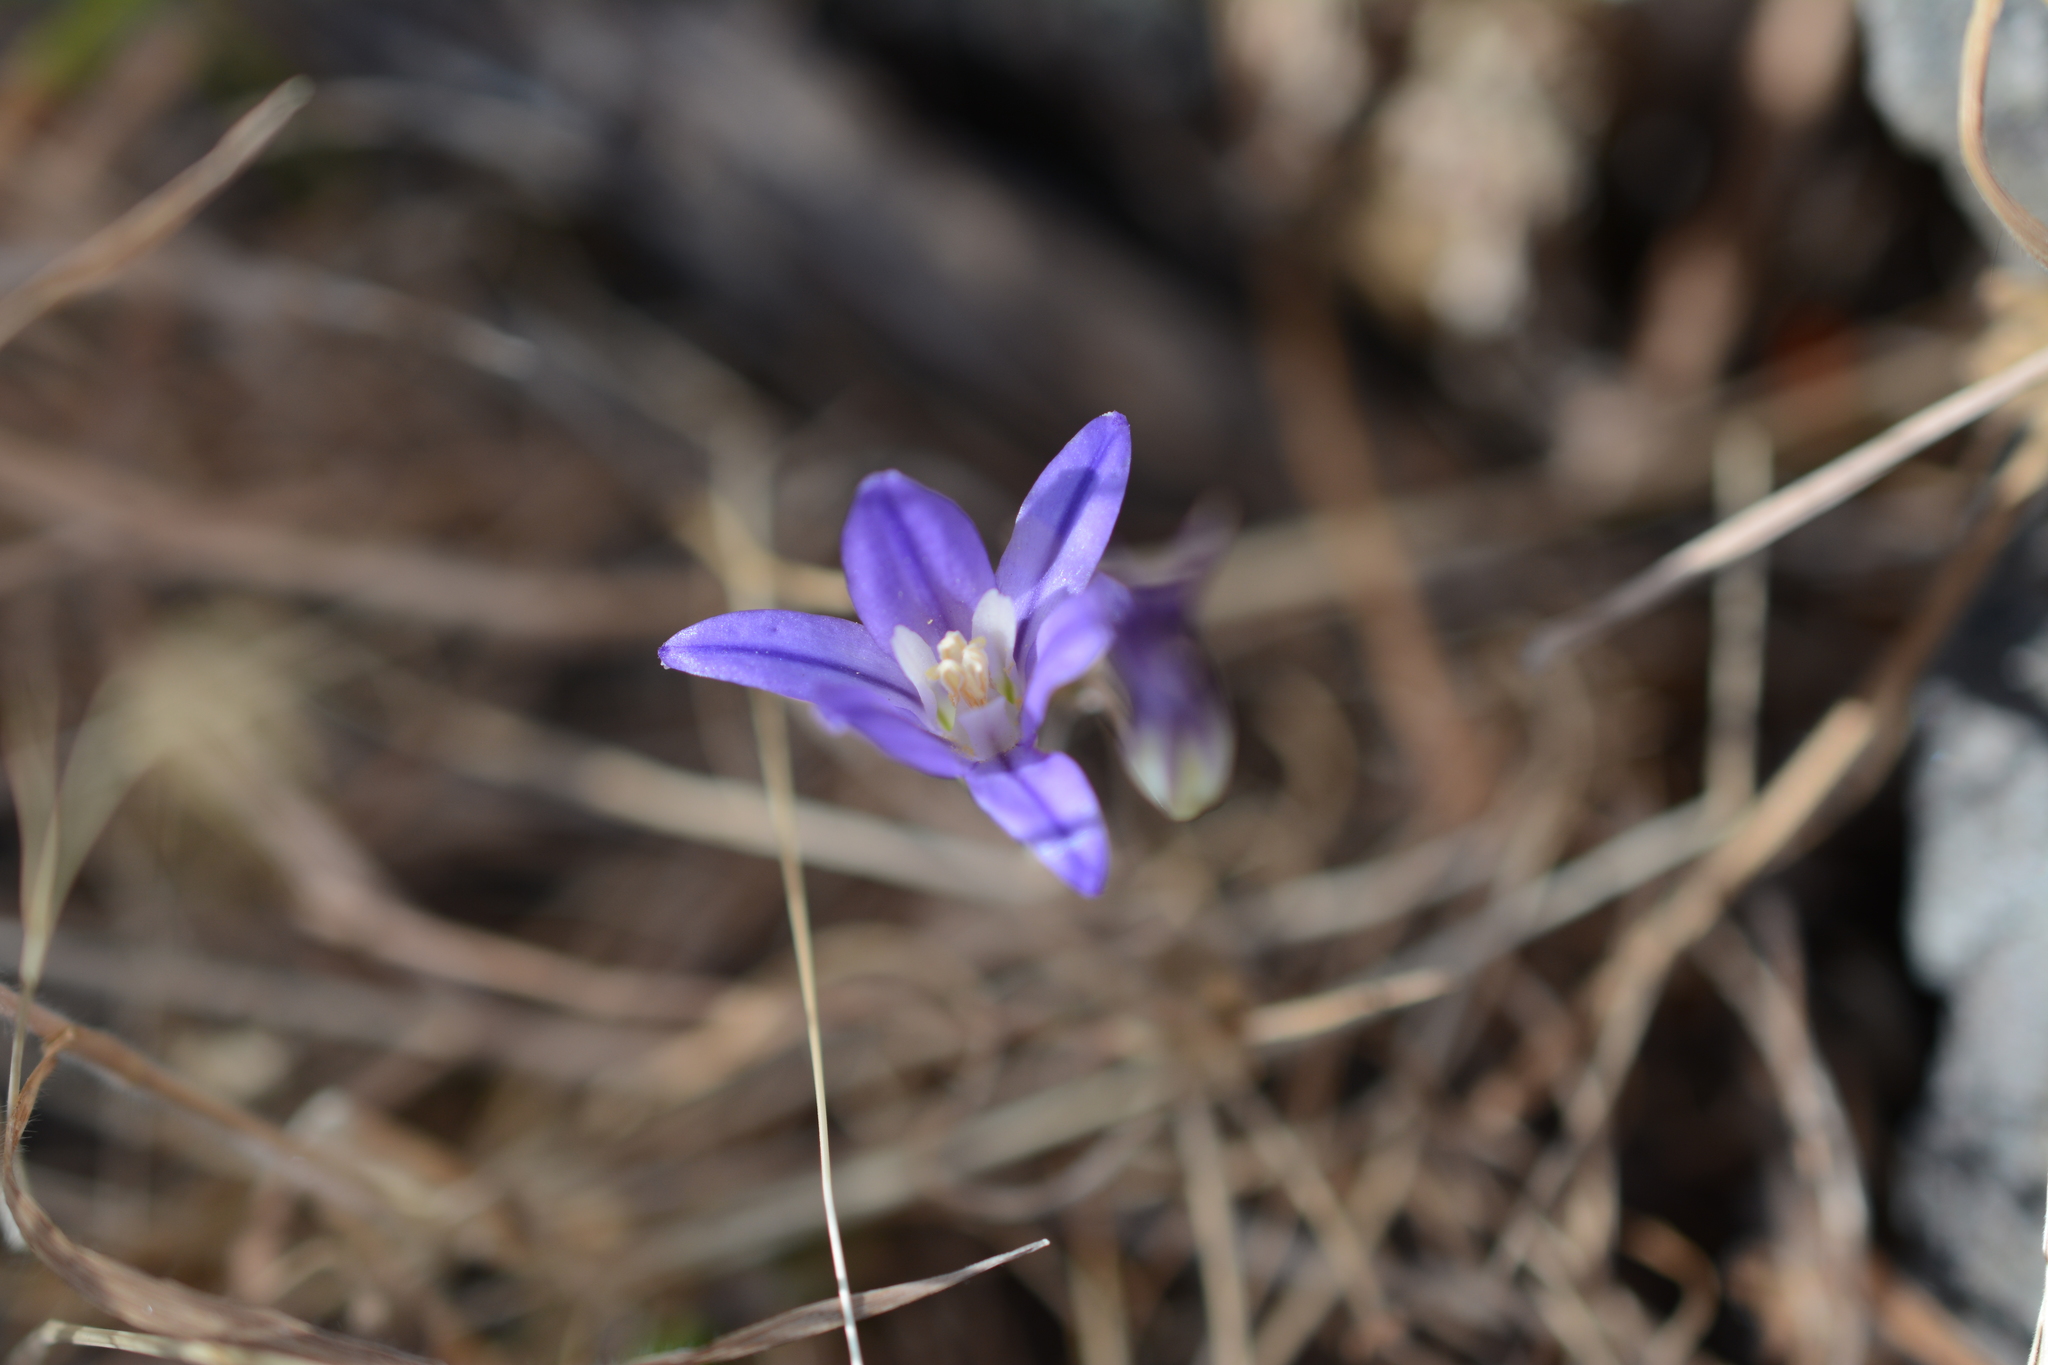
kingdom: Plantae
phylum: Tracheophyta
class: Liliopsida
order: Asparagales
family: Asparagaceae
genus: Brodiaea
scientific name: Brodiaea coronaria
